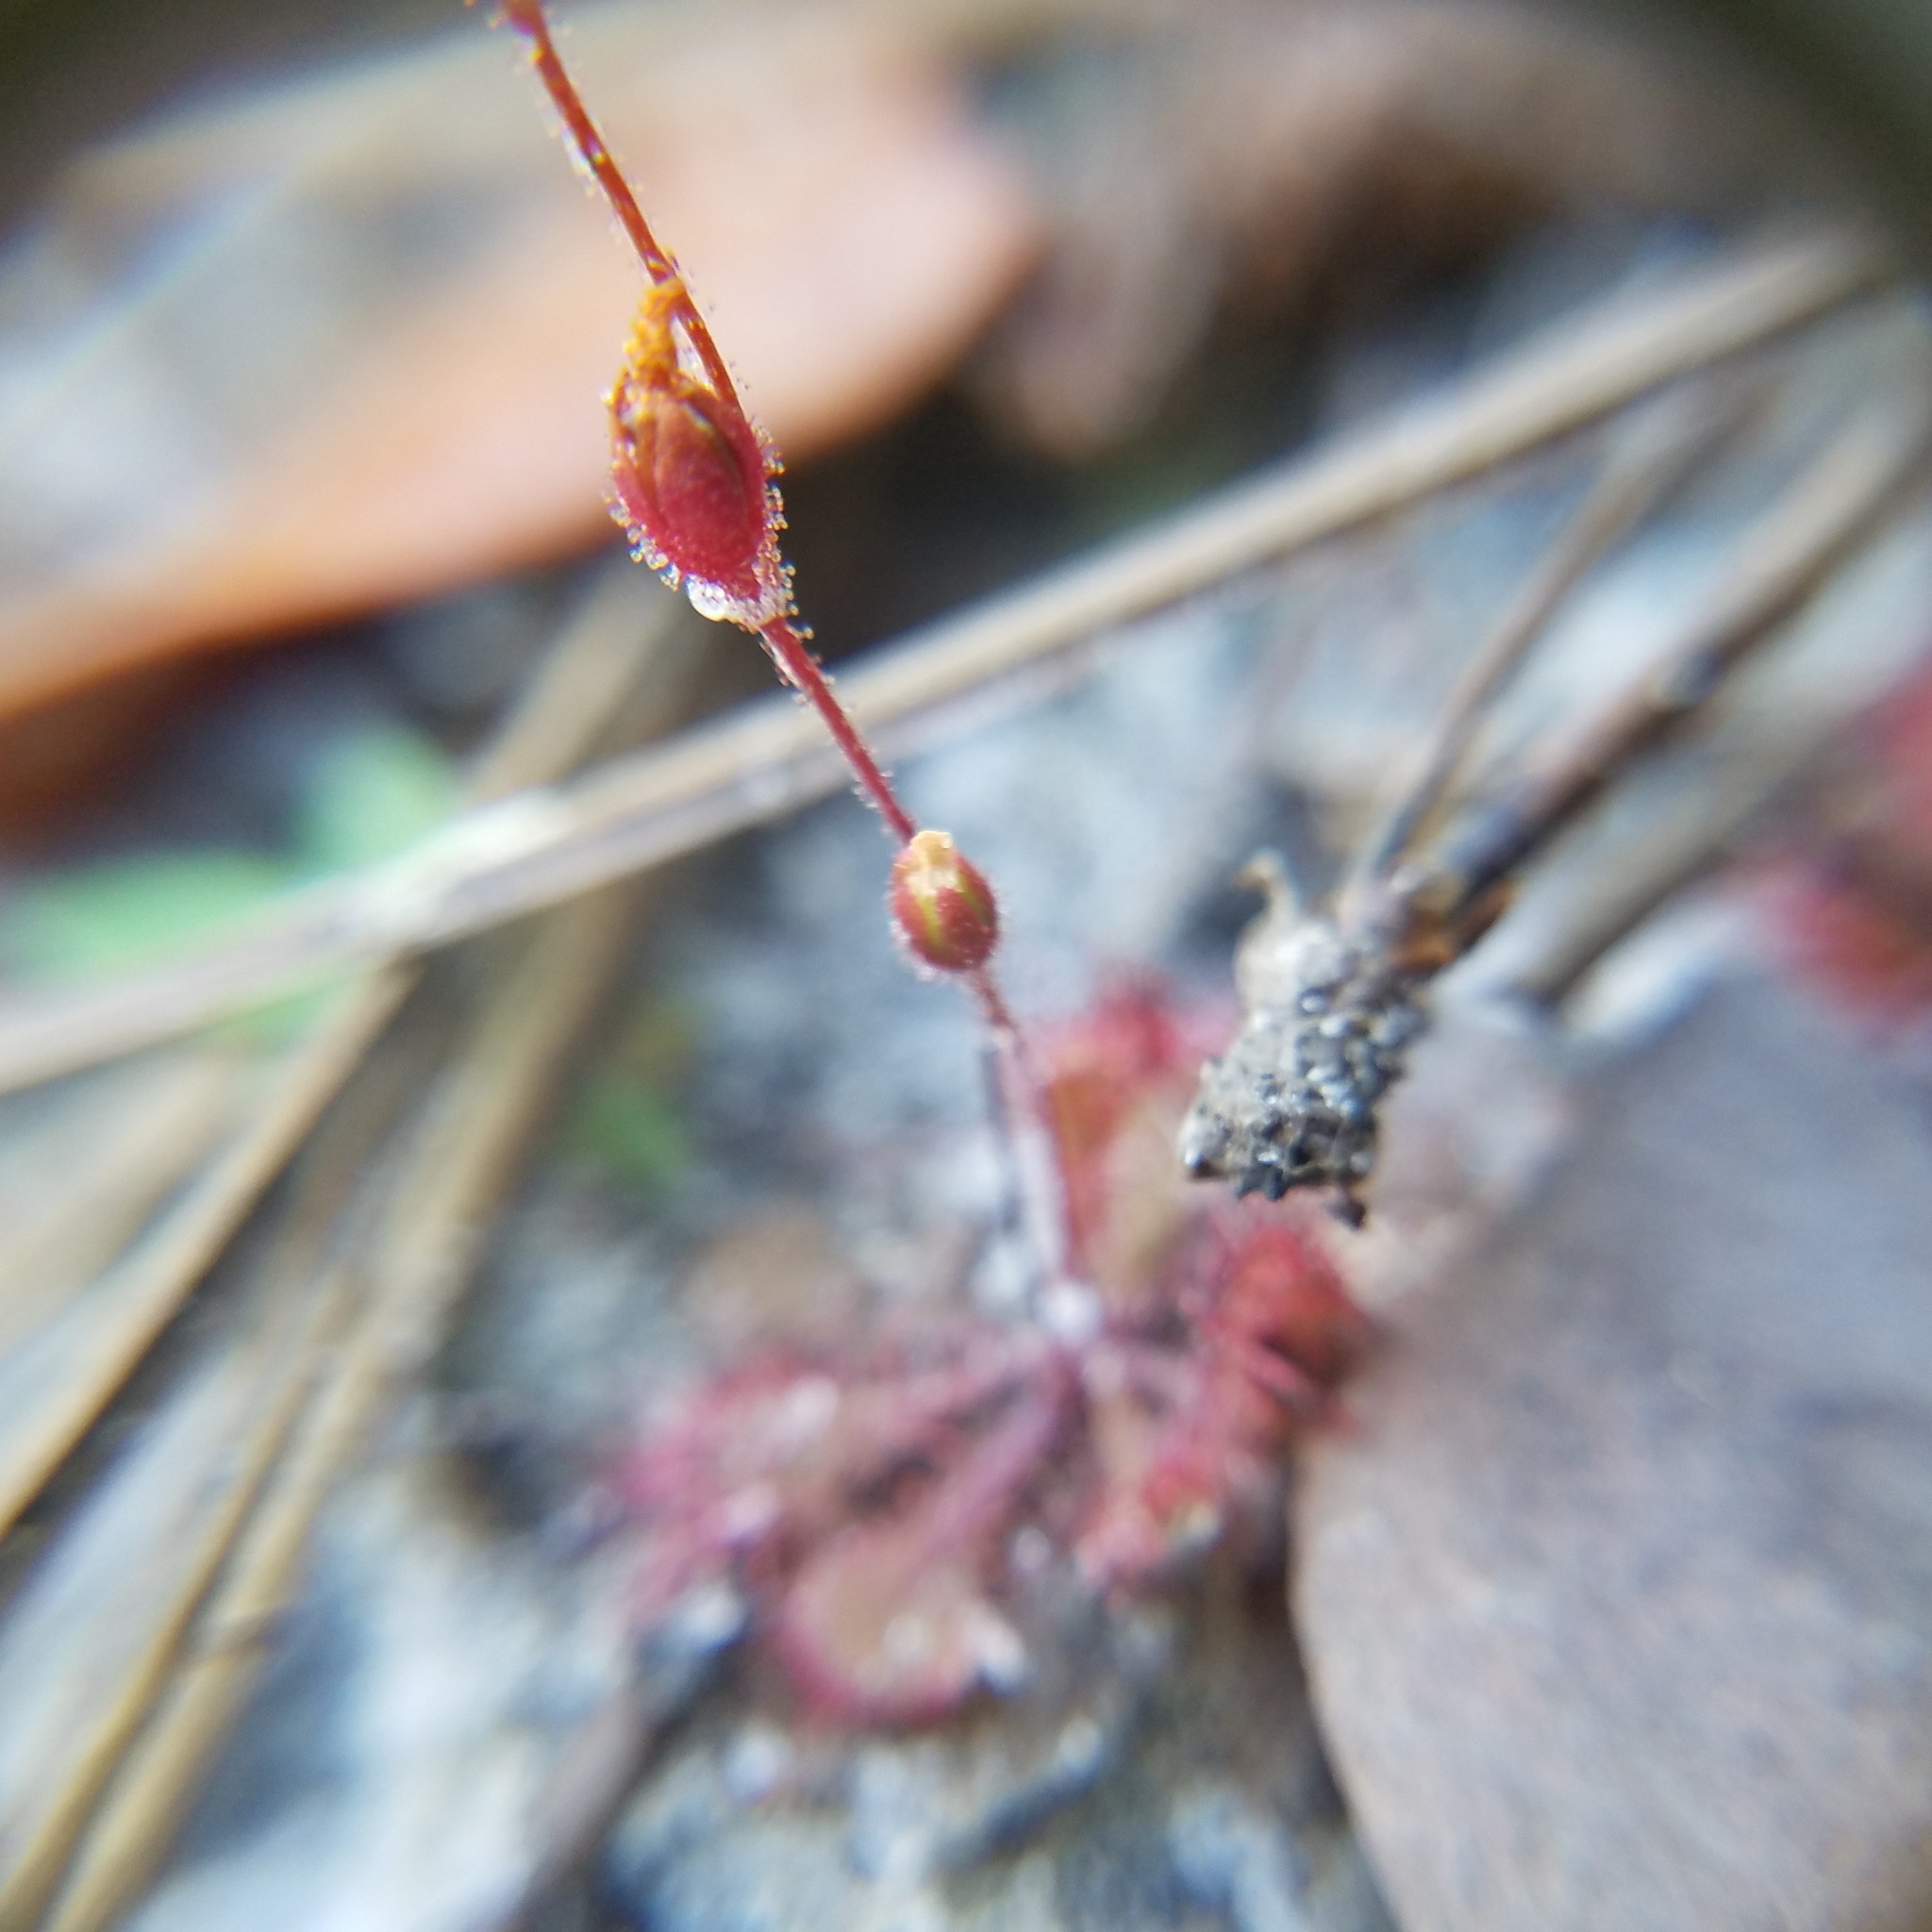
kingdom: Plantae
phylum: Tracheophyta
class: Magnoliopsida
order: Caryophyllales
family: Droseraceae
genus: Drosera
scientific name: Drosera brevifolia
